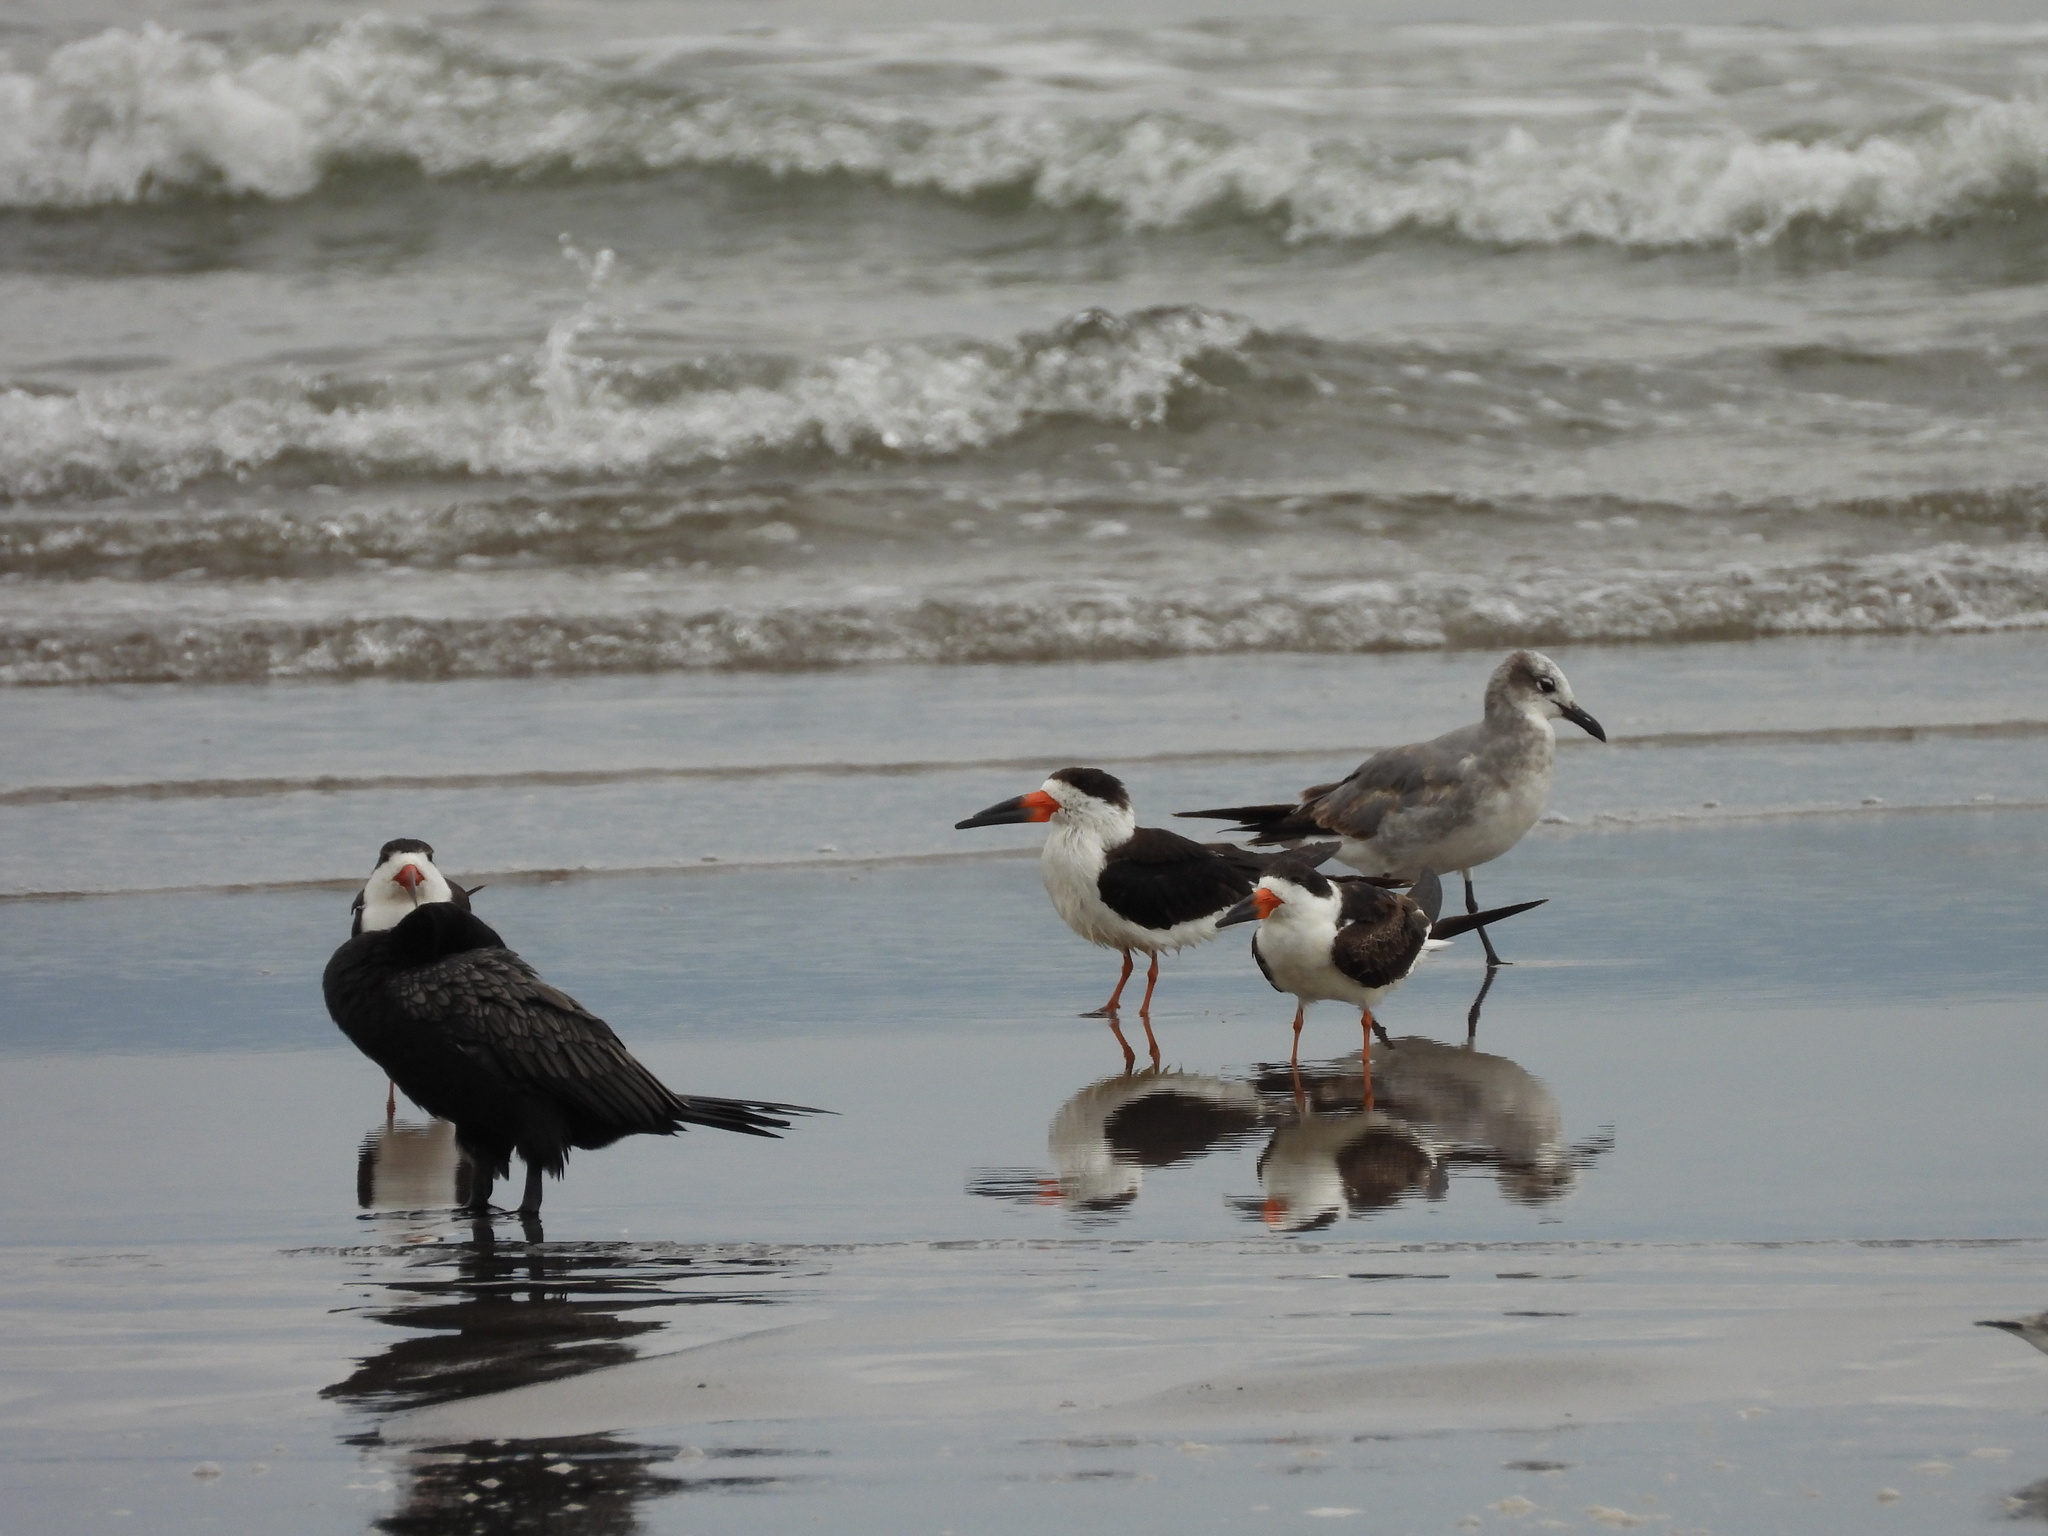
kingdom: Animalia
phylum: Chordata
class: Aves
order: Charadriiformes
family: Laridae
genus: Rynchops
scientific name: Rynchops niger
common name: Black skimmer
